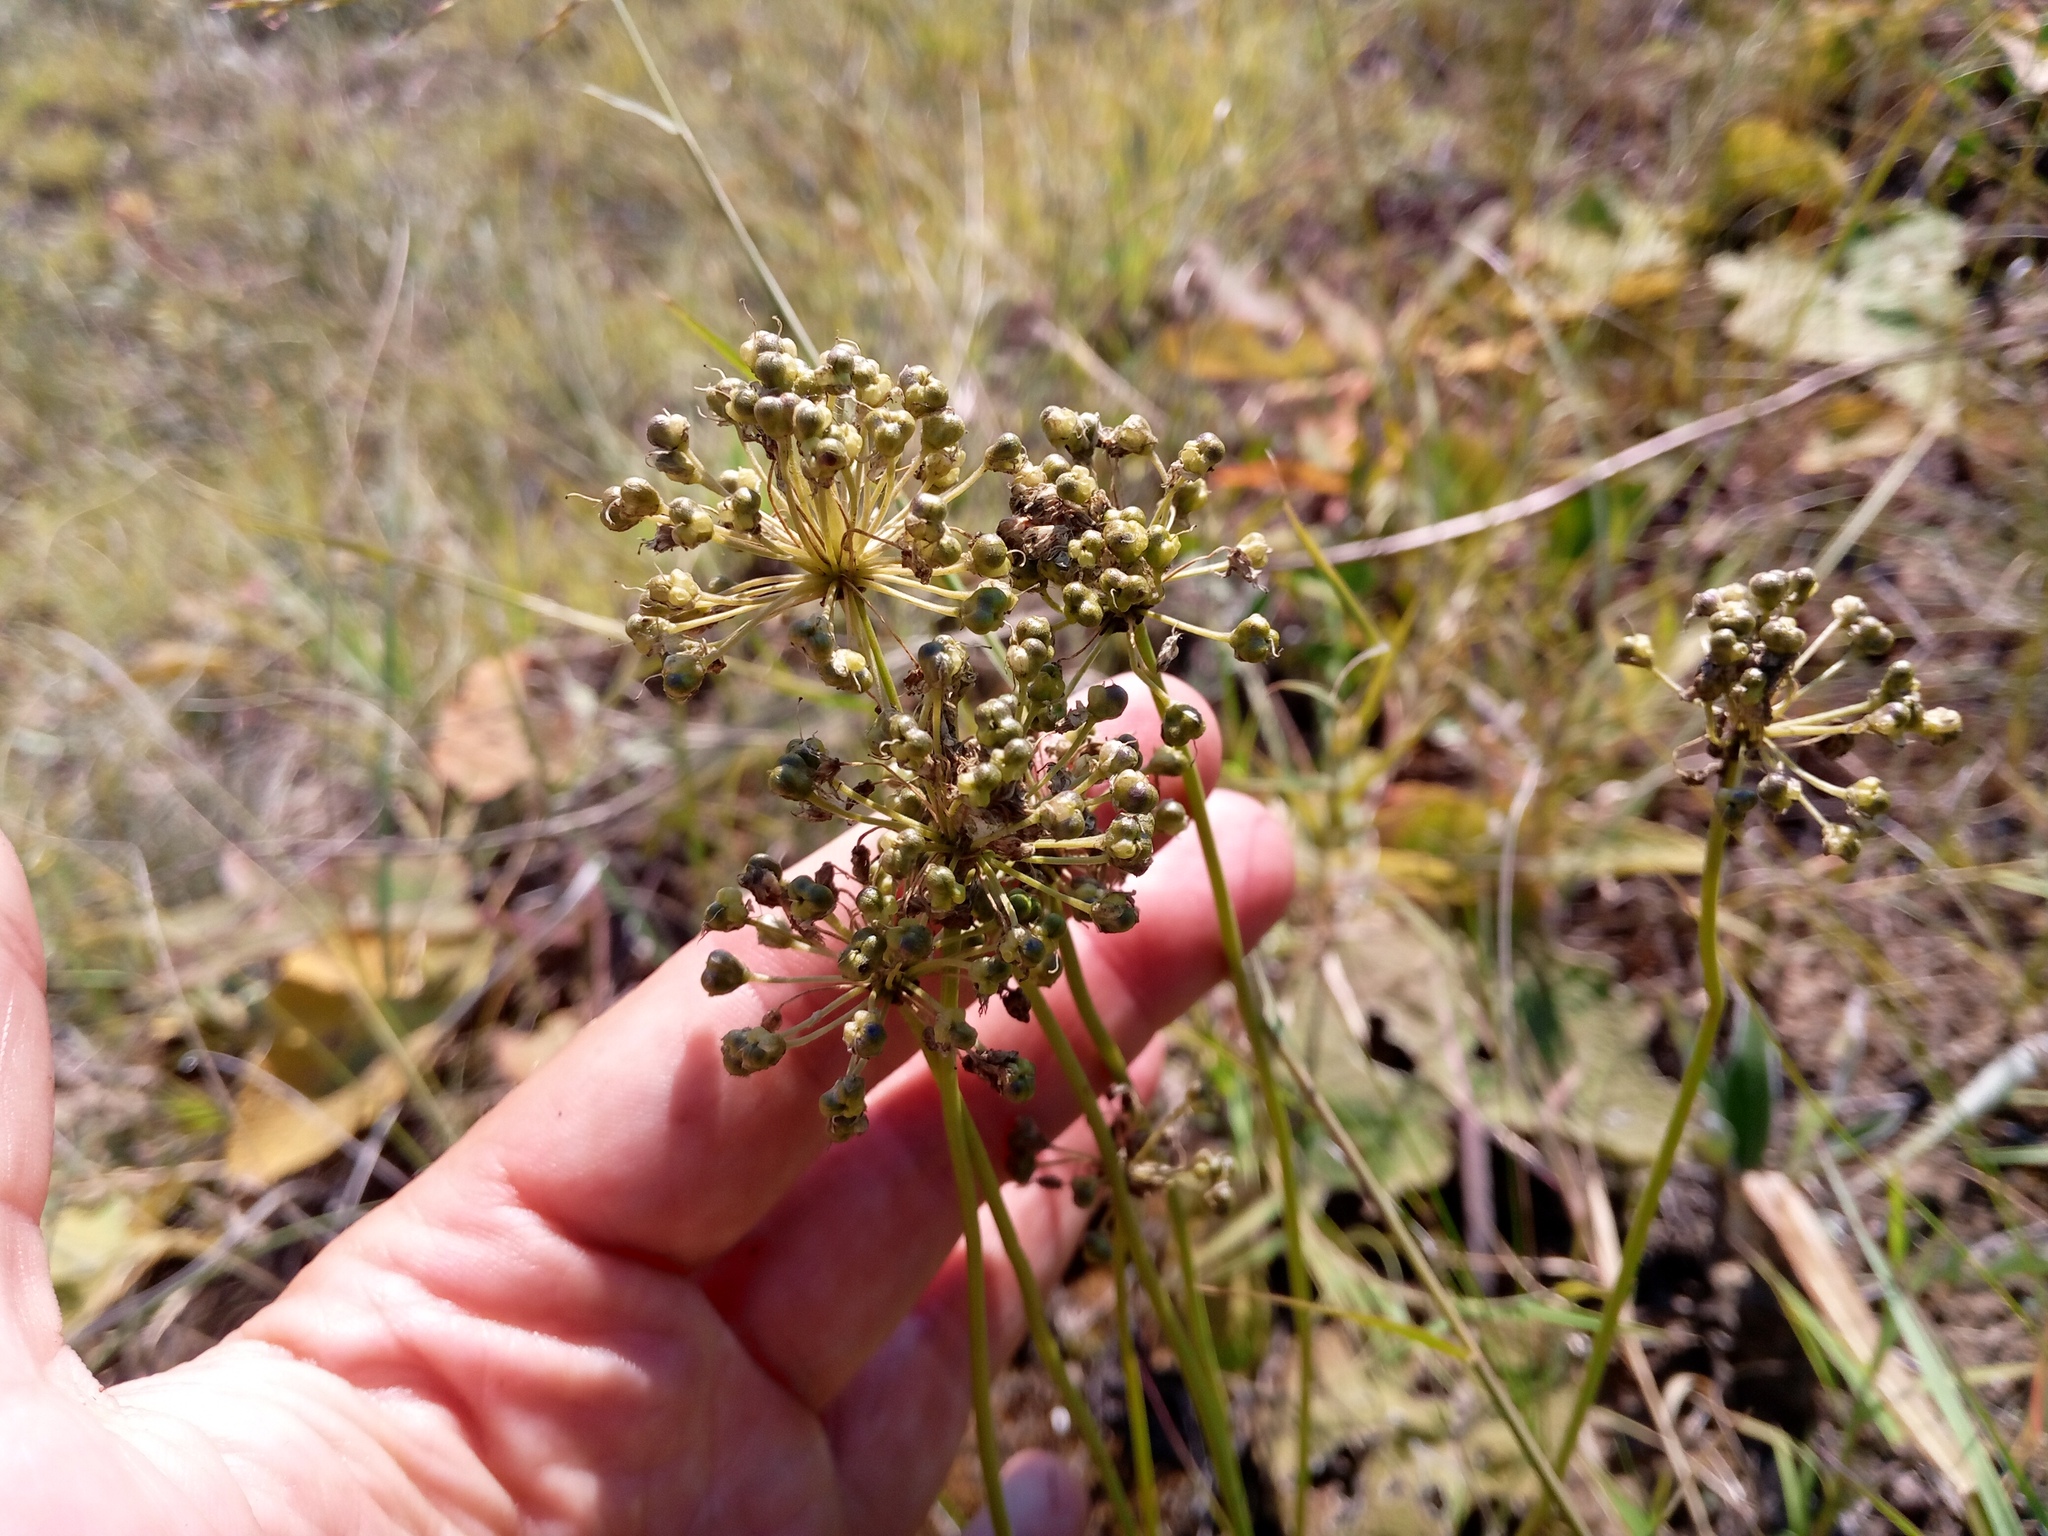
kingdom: Plantae
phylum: Tracheophyta
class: Liliopsida
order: Asparagales
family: Amaryllidaceae
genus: Allium
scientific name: Allium flavescens
